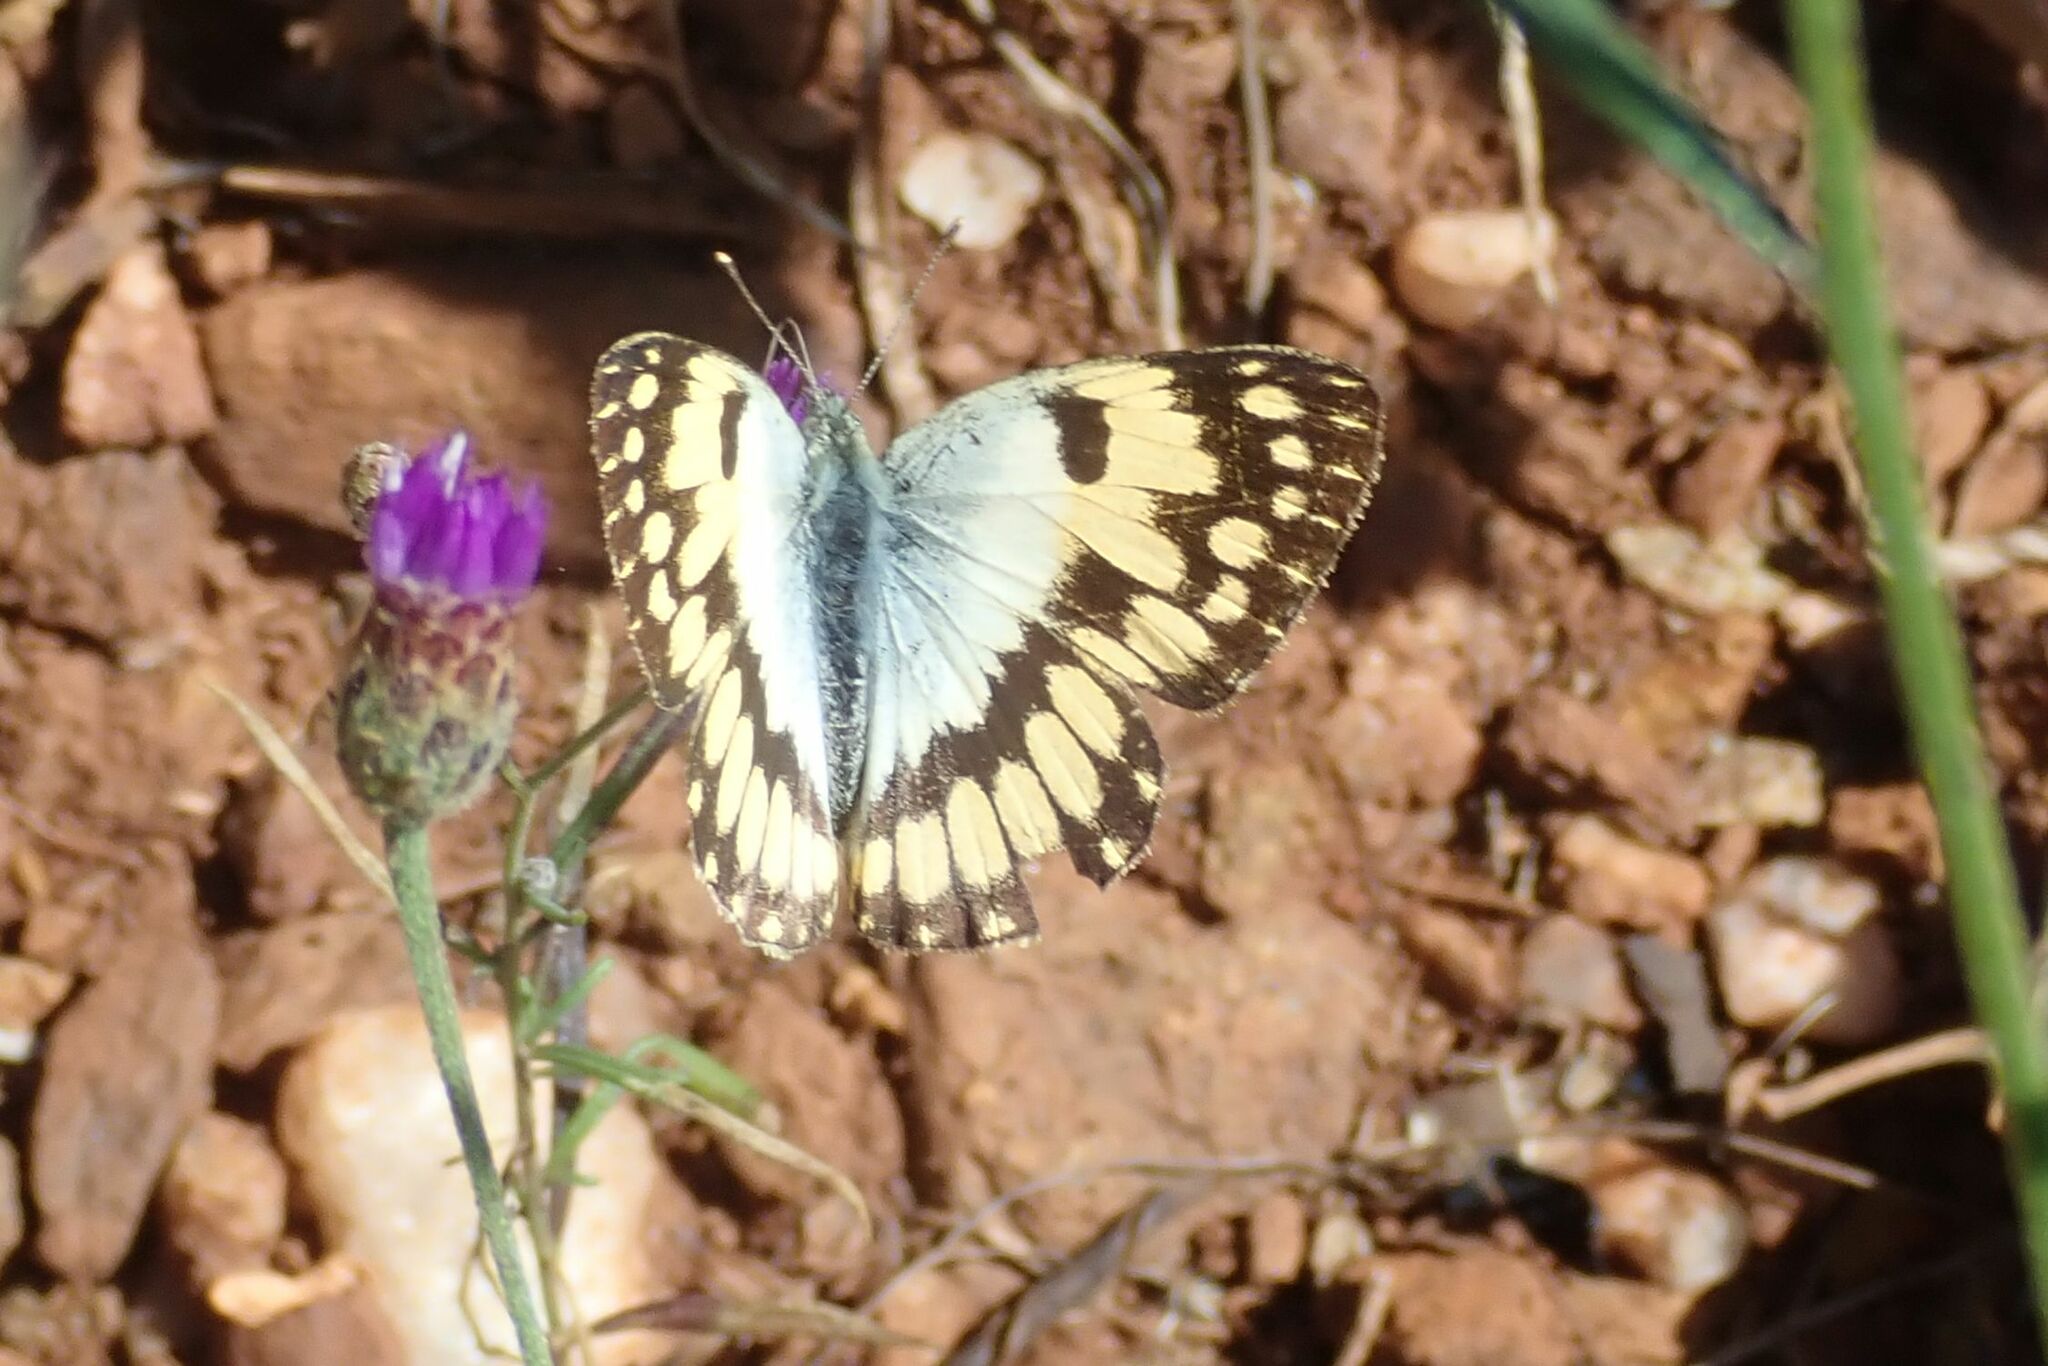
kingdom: Animalia
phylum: Arthropoda
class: Insecta
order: Lepidoptera
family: Pieridae
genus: Colotis
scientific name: Colotis vesta
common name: Veined golden arab
